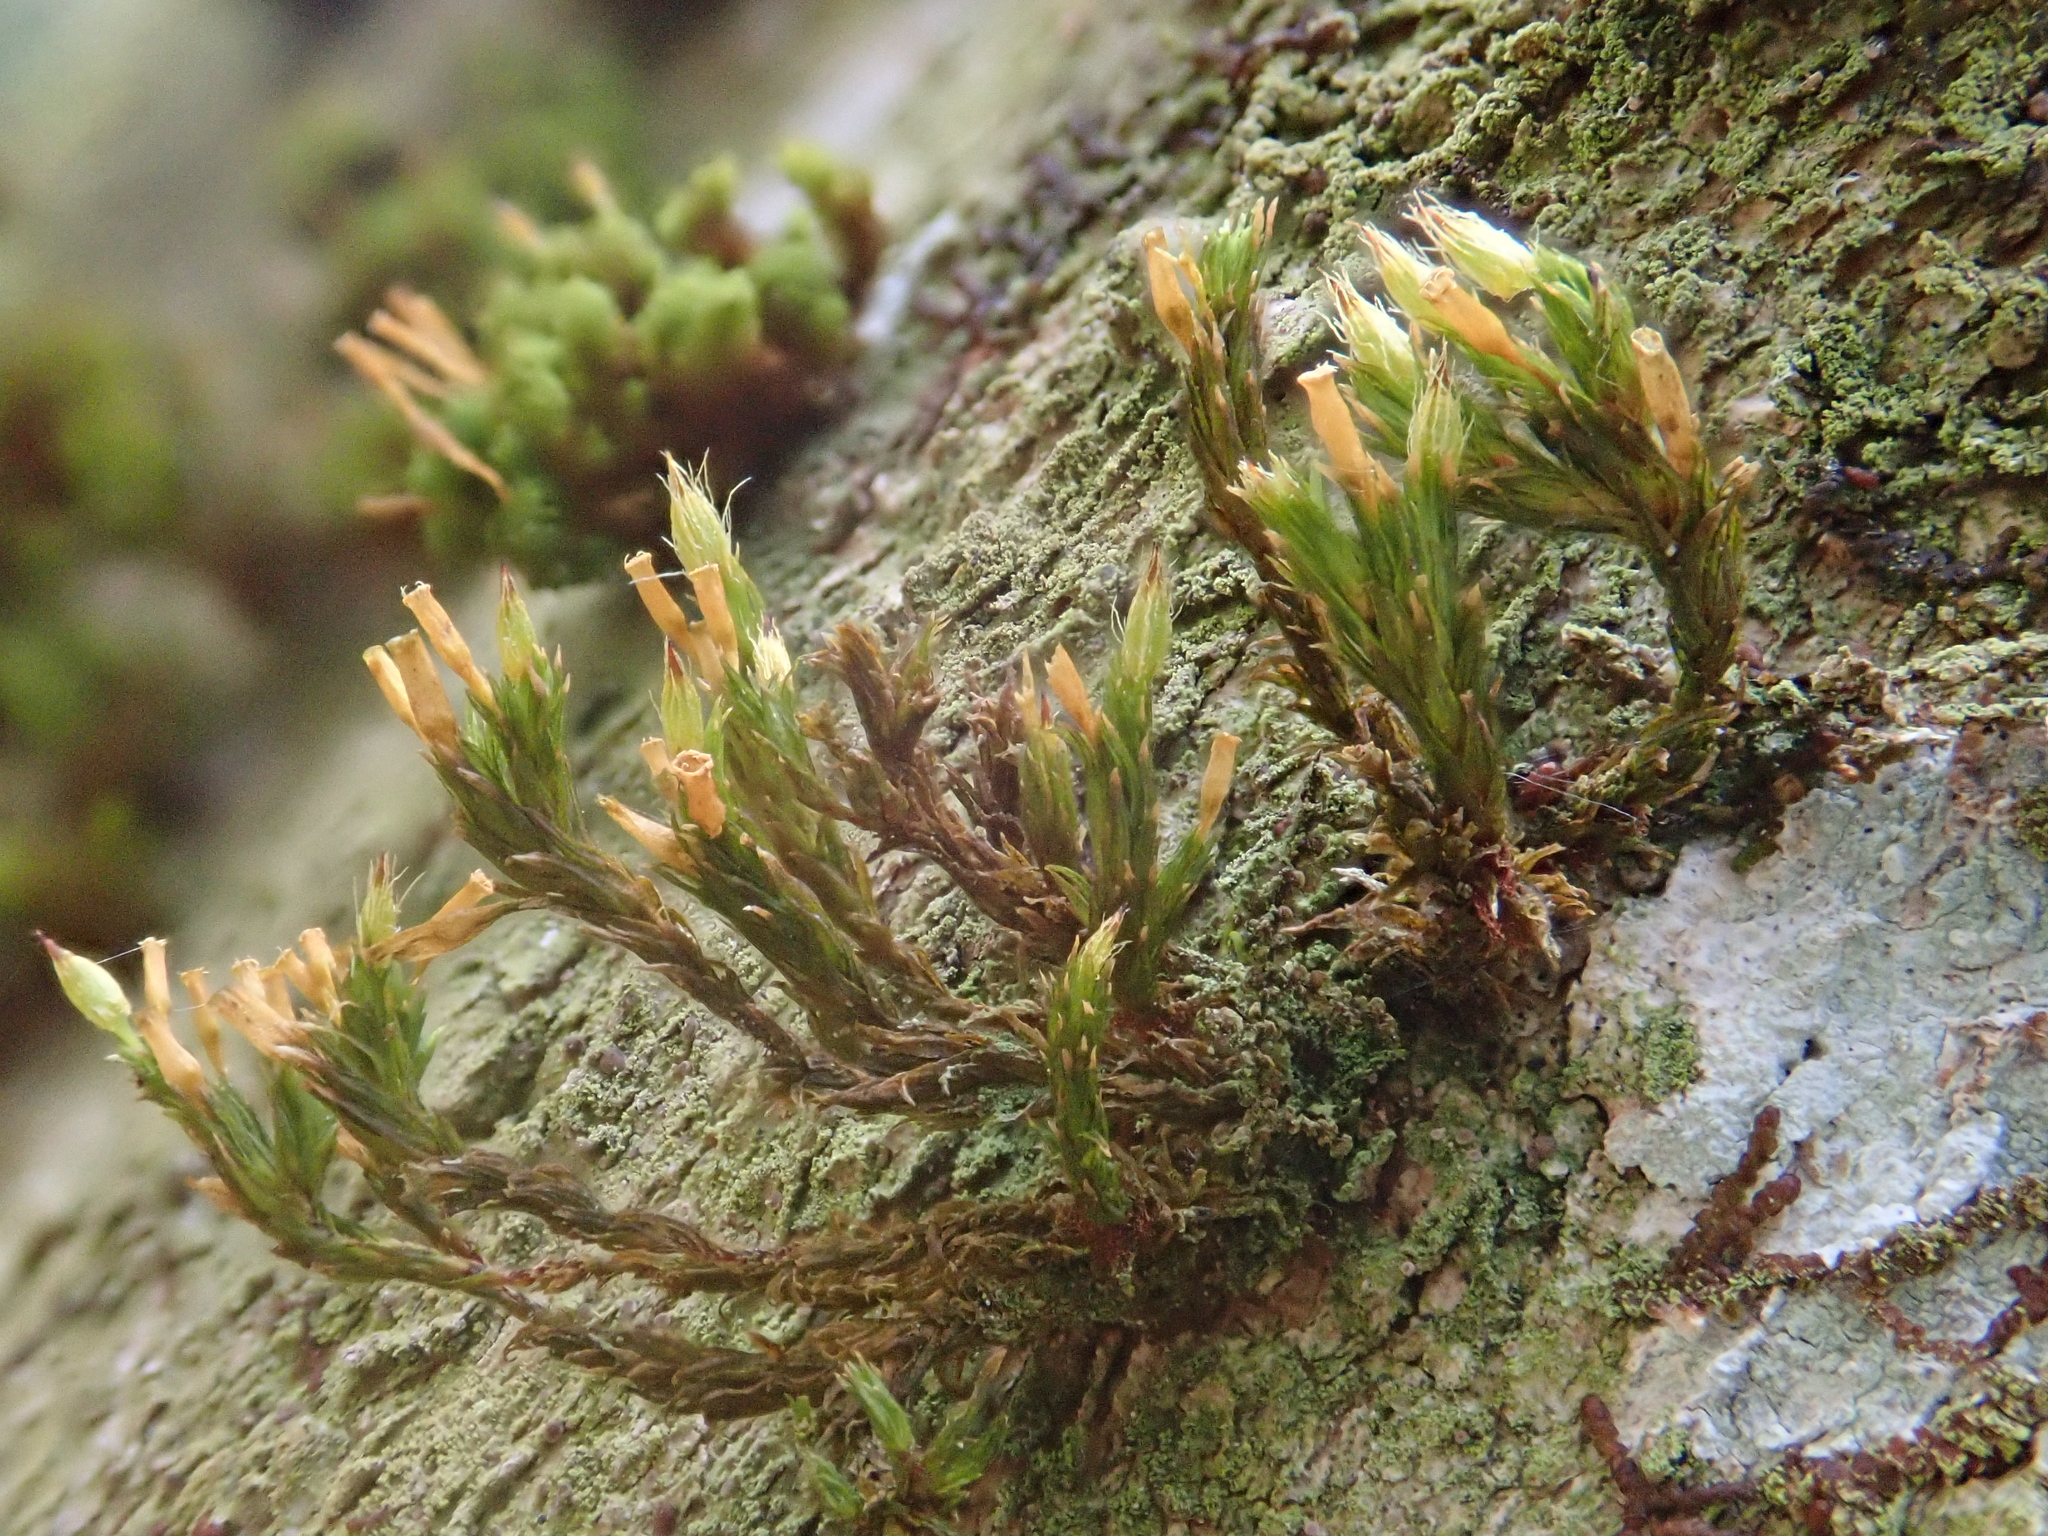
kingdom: Plantae
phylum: Bryophyta
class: Bryopsida
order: Orthotrichales
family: Orthotrichaceae
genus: Lewinskya
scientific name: Lewinskya speciosa
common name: Showy bristle moss
